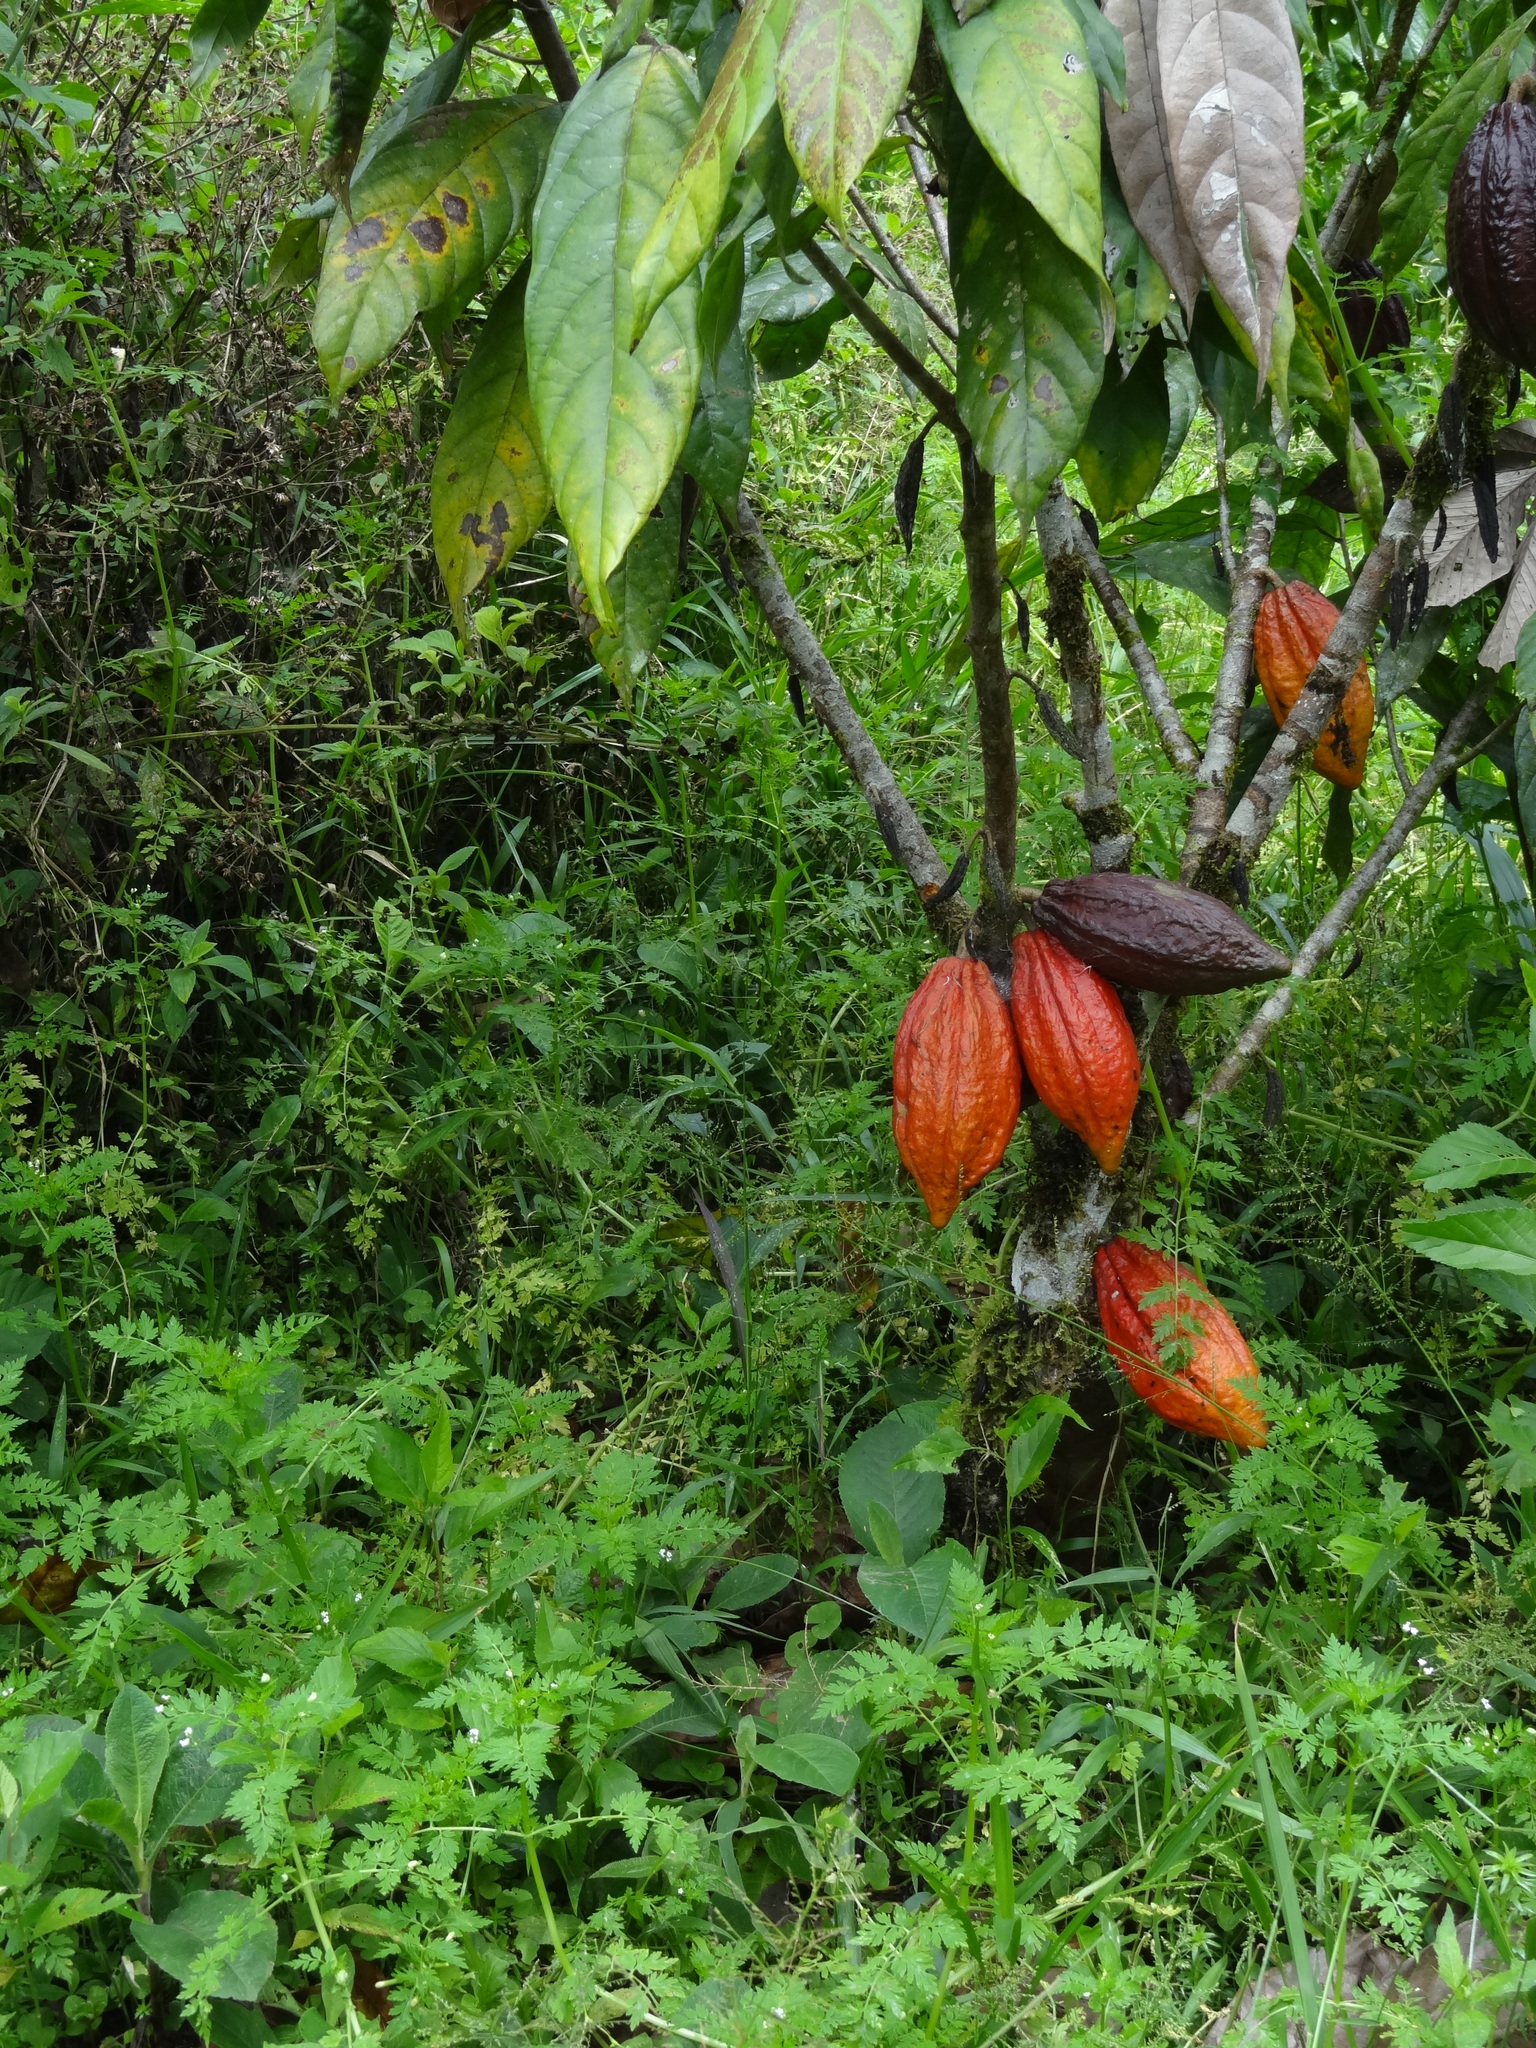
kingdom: Plantae
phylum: Tracheophyta
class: Magnoliopsida
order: Malvales
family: Malvaceae
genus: Theobroma
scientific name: Theobroma cacao
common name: Cocoa
